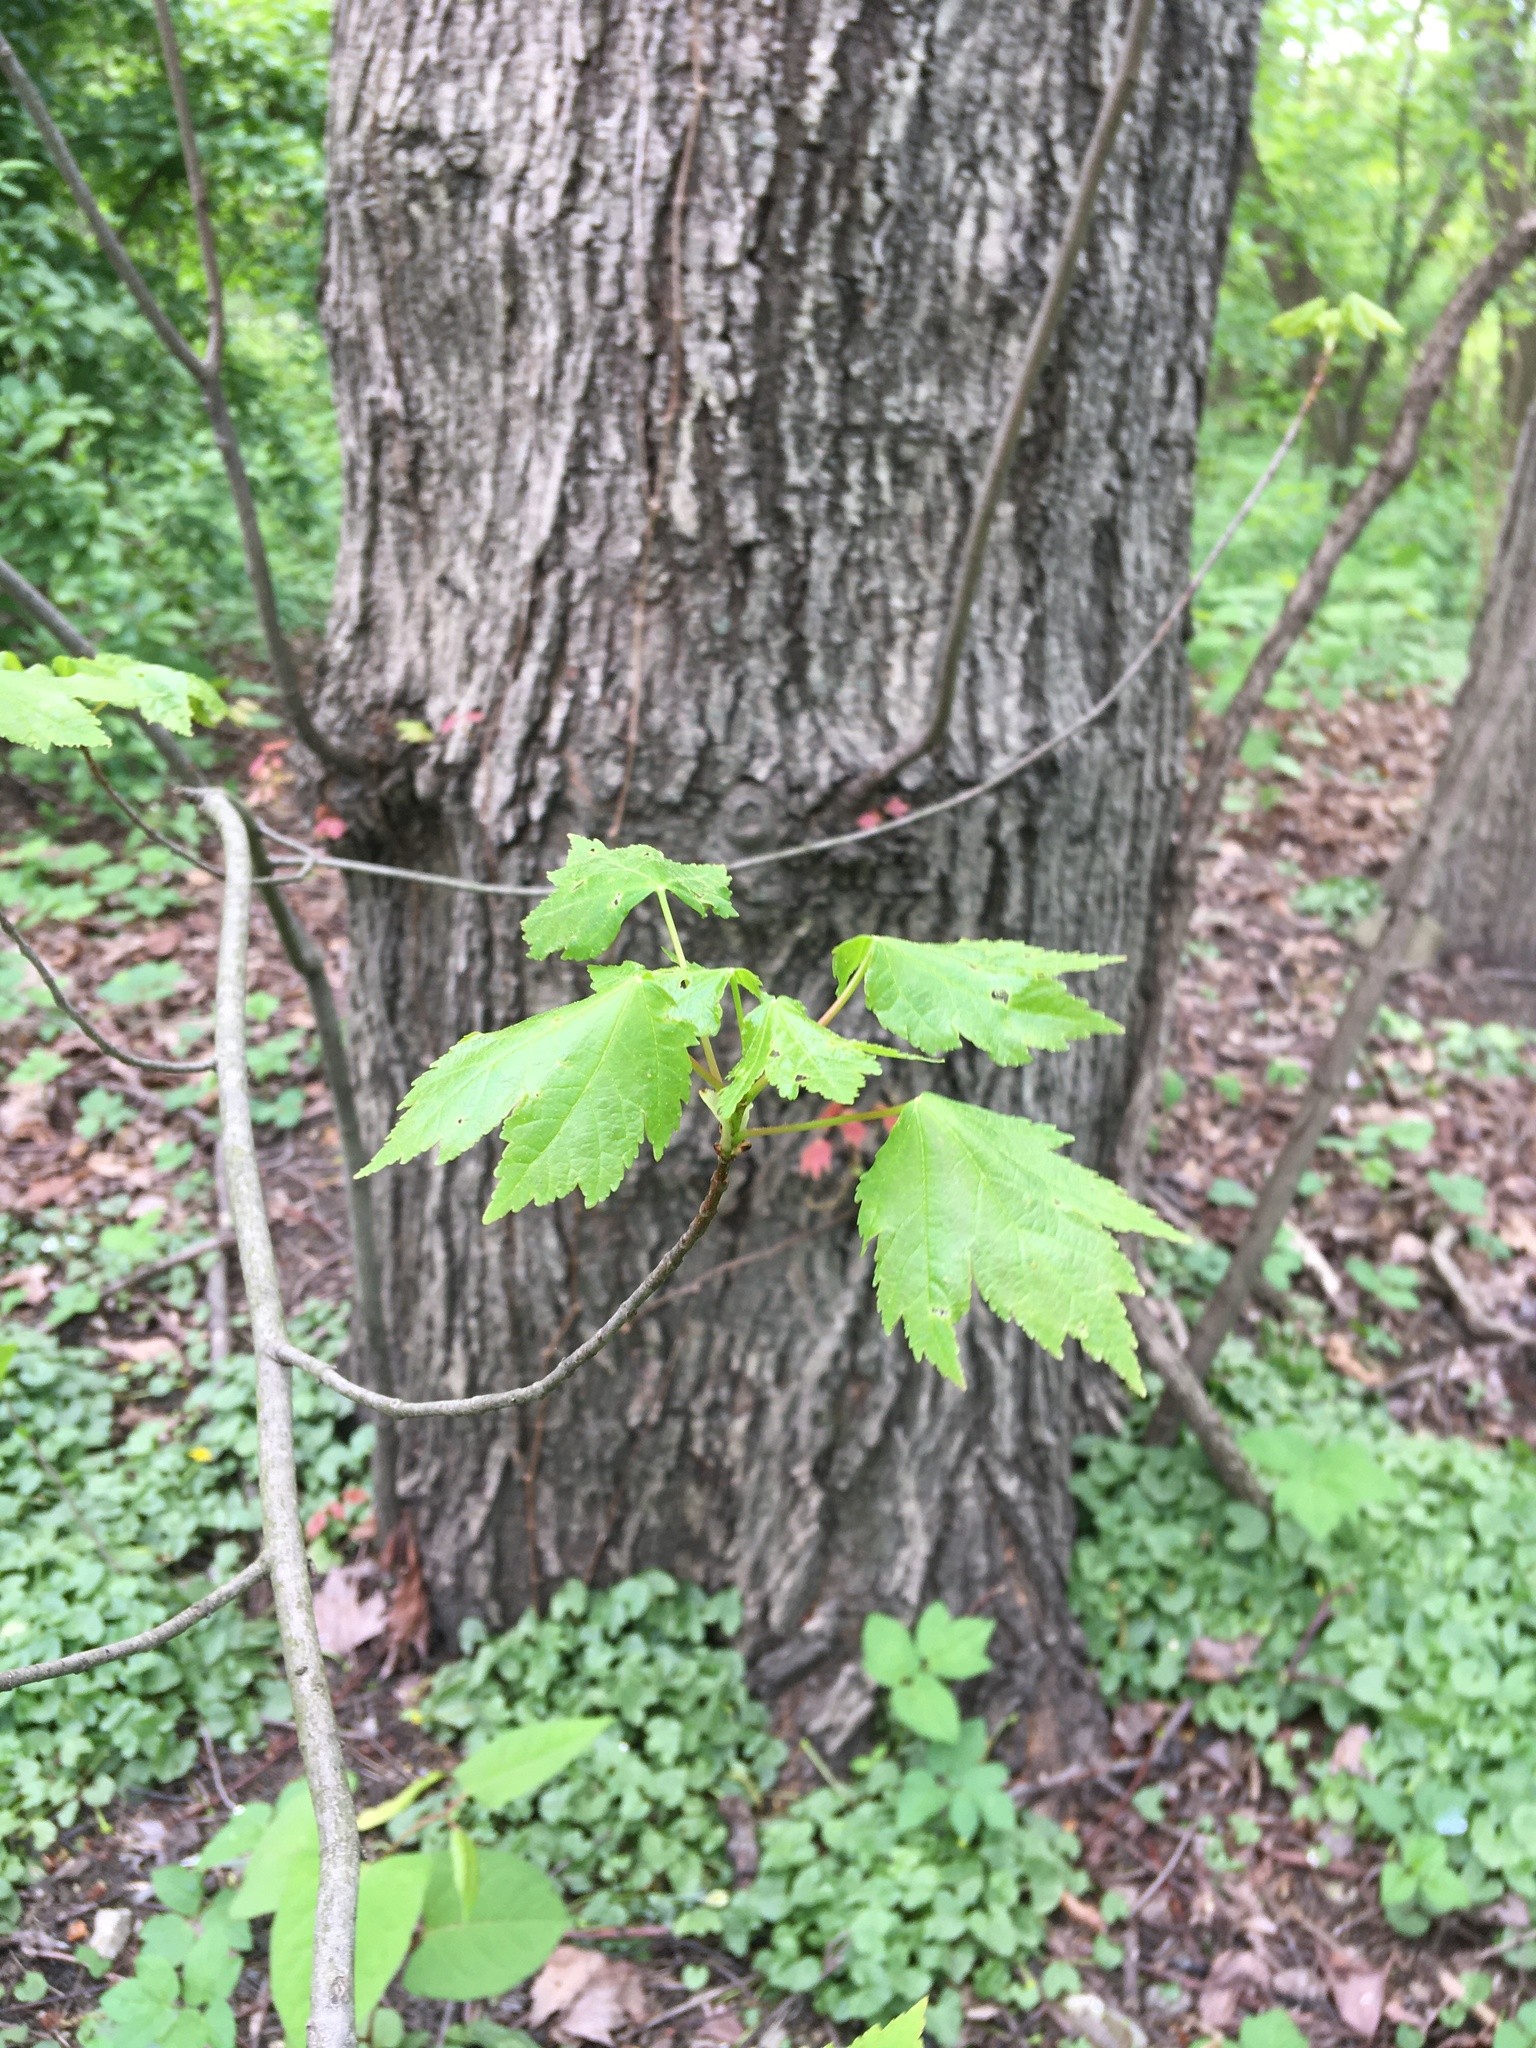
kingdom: Plantae
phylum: Tracheophyta
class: Magnoliopsida
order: Sapindales
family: Sapindaceae
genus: Acer
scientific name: Acer rubrum
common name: Red maple
